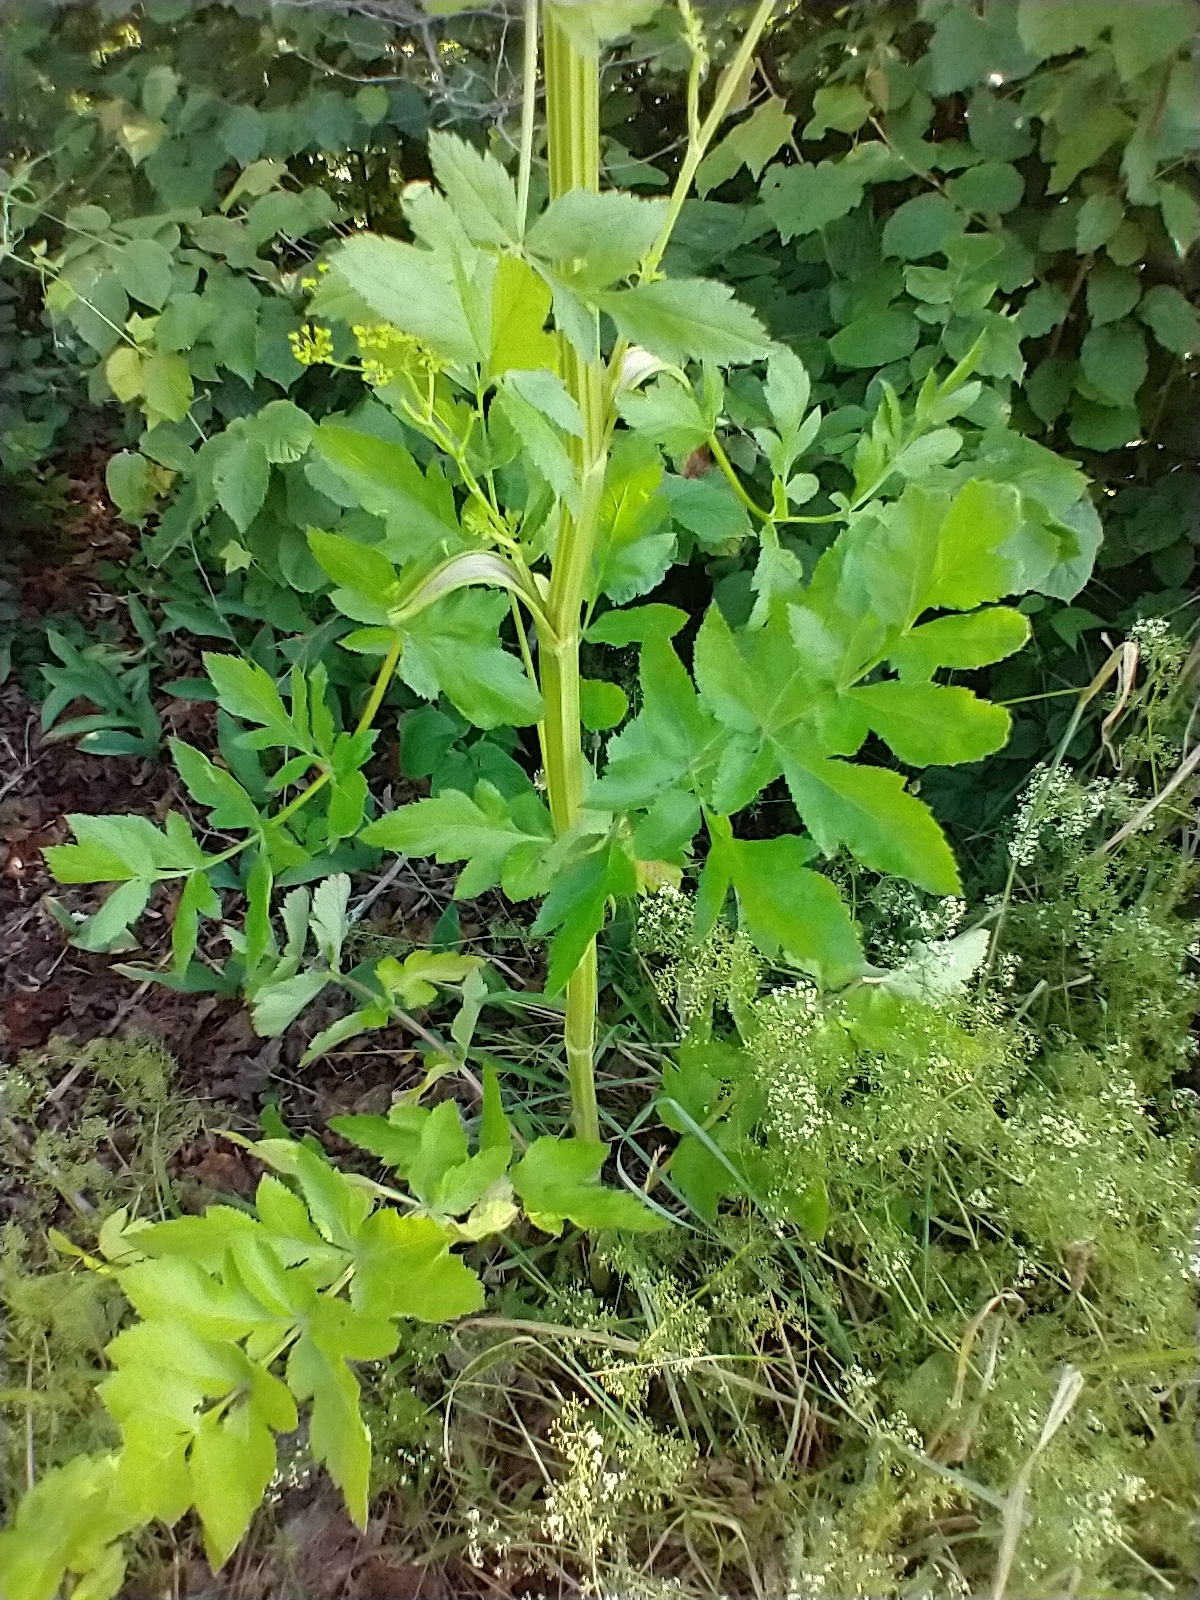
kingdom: Plantae
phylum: Tracheophyta
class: Magnoliopsida
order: Apiales
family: Apiaceae
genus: Pastinaca
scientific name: Pastinaca sativa
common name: Wild parsnip
